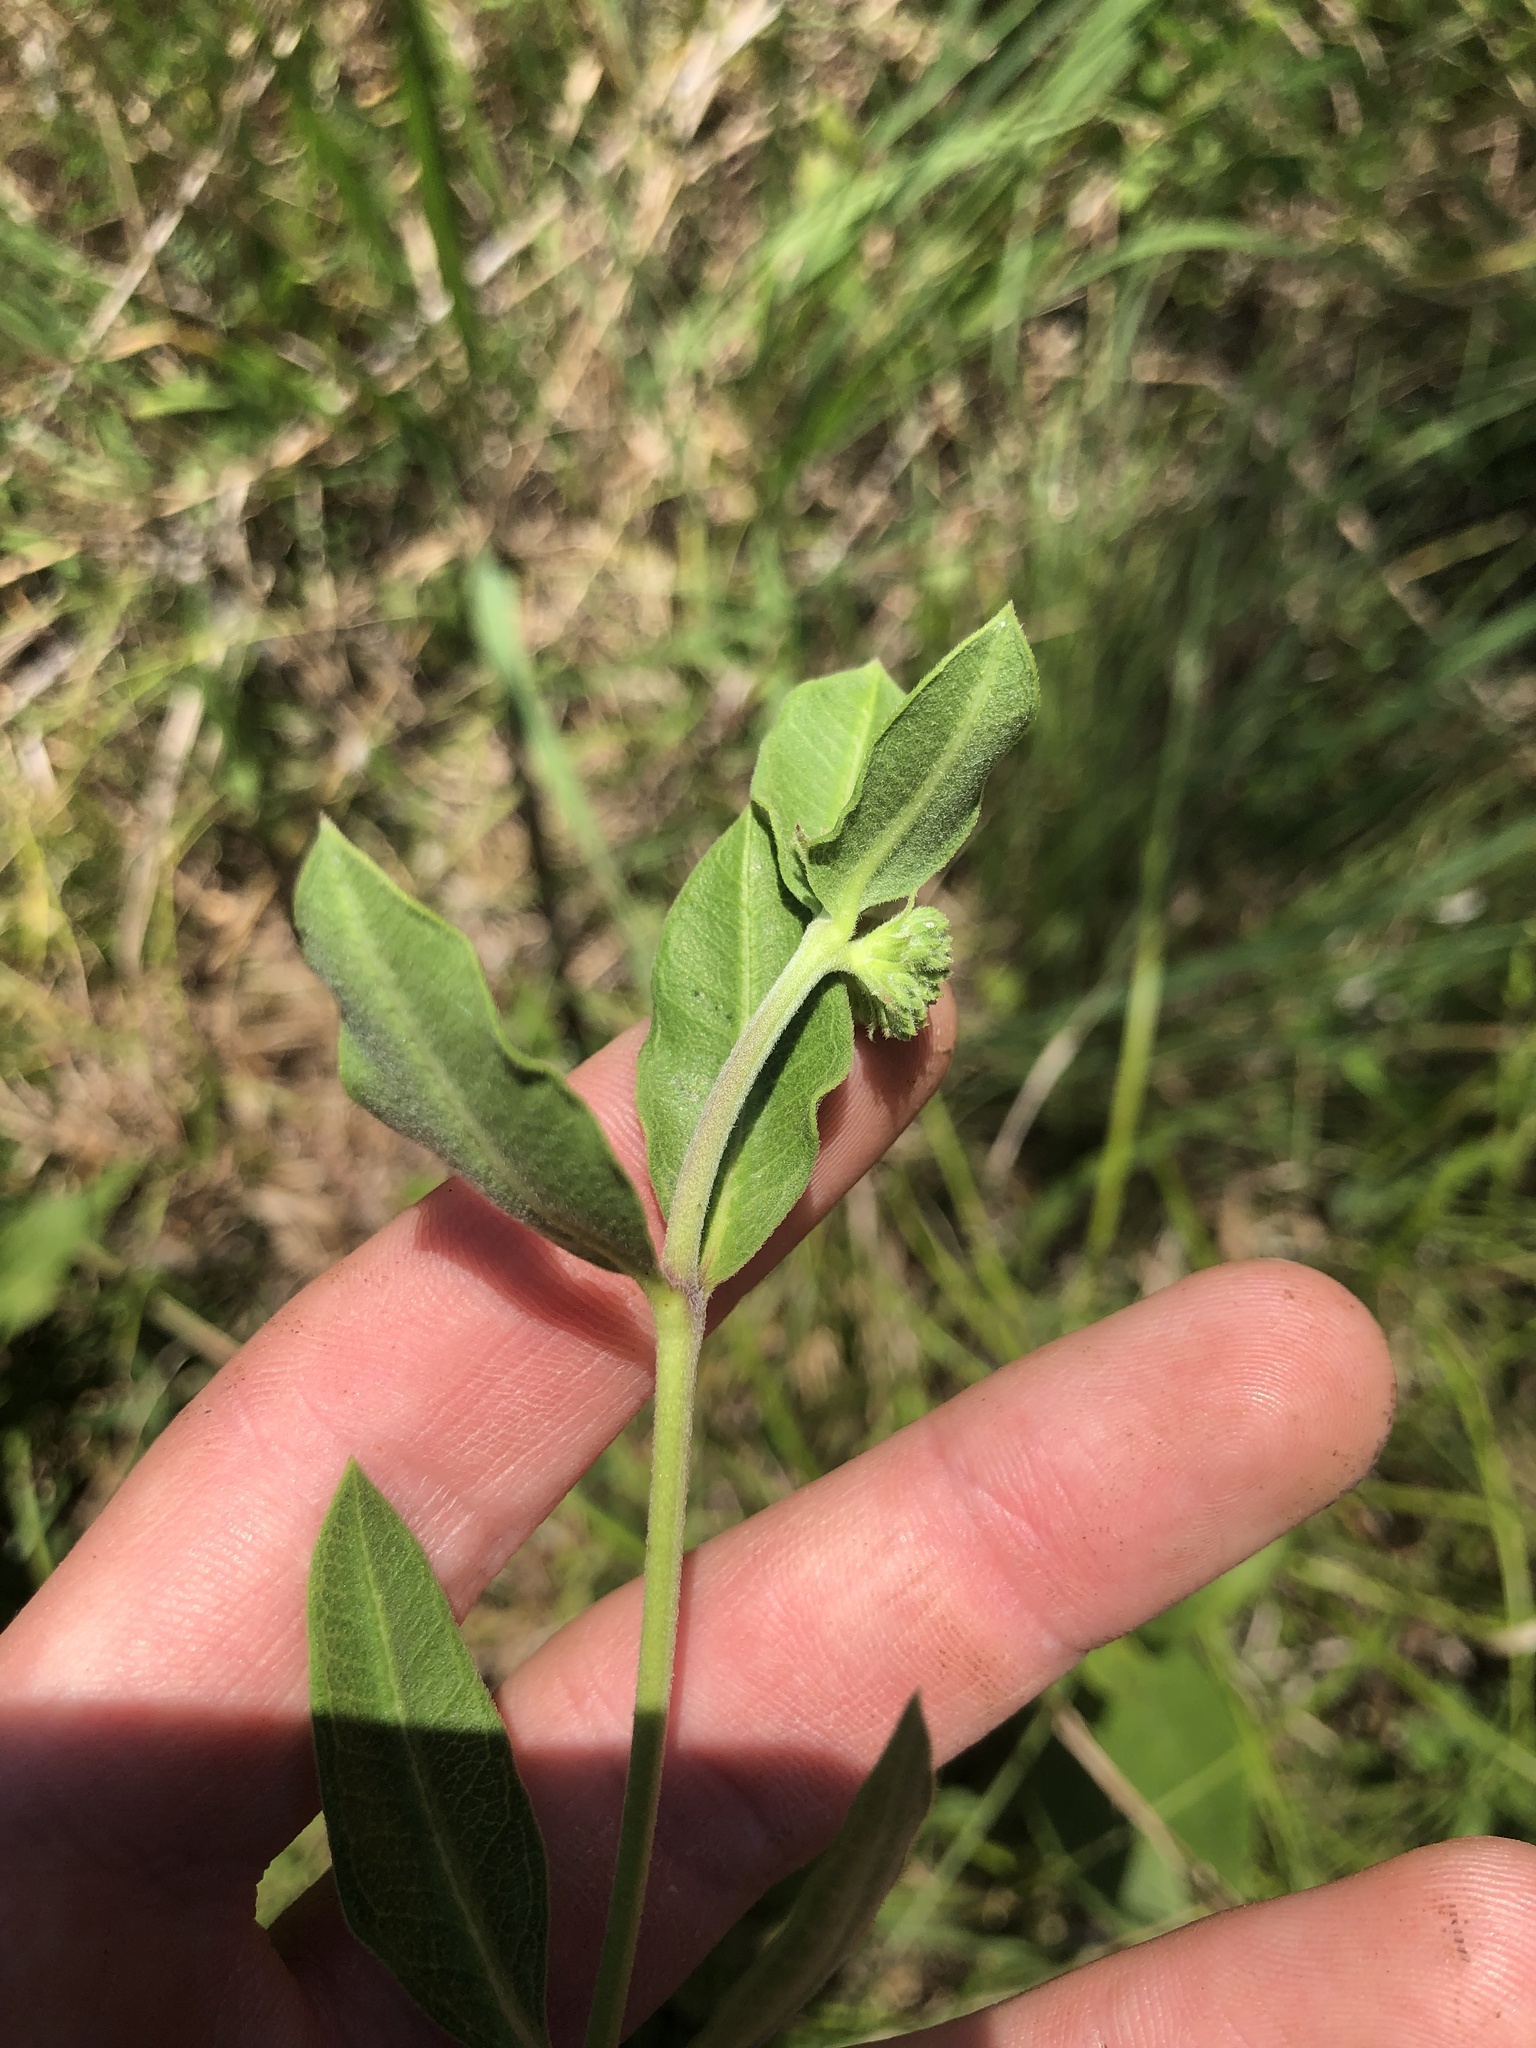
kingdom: Plantae
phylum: Tracheophyta
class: Magnoliopsida
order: Gentianales
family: Apocynaceae
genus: Asclepias
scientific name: Asclepias viridiflora
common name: Green comet milkweed
